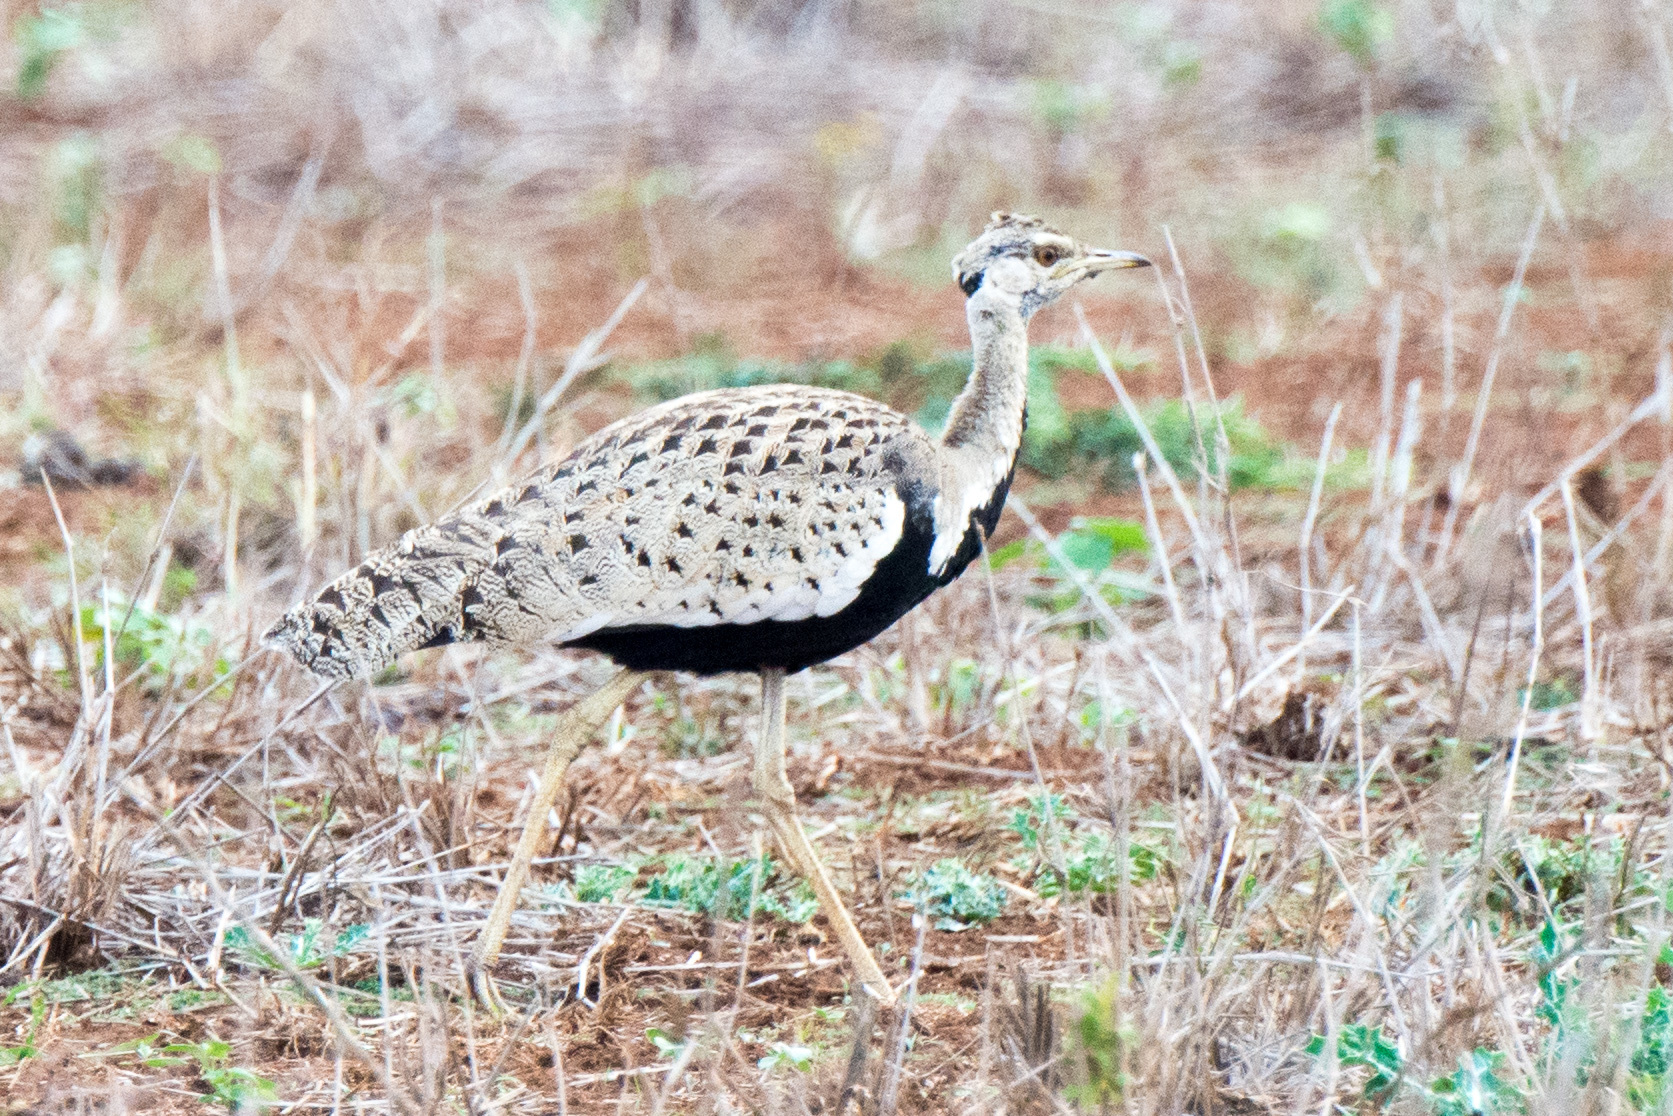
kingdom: Animalia
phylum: Chordata
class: Aves
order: Otidiformes
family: Otididae
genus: Lissotis
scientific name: Lissotis melanogaster
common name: Black-bellied bustard
